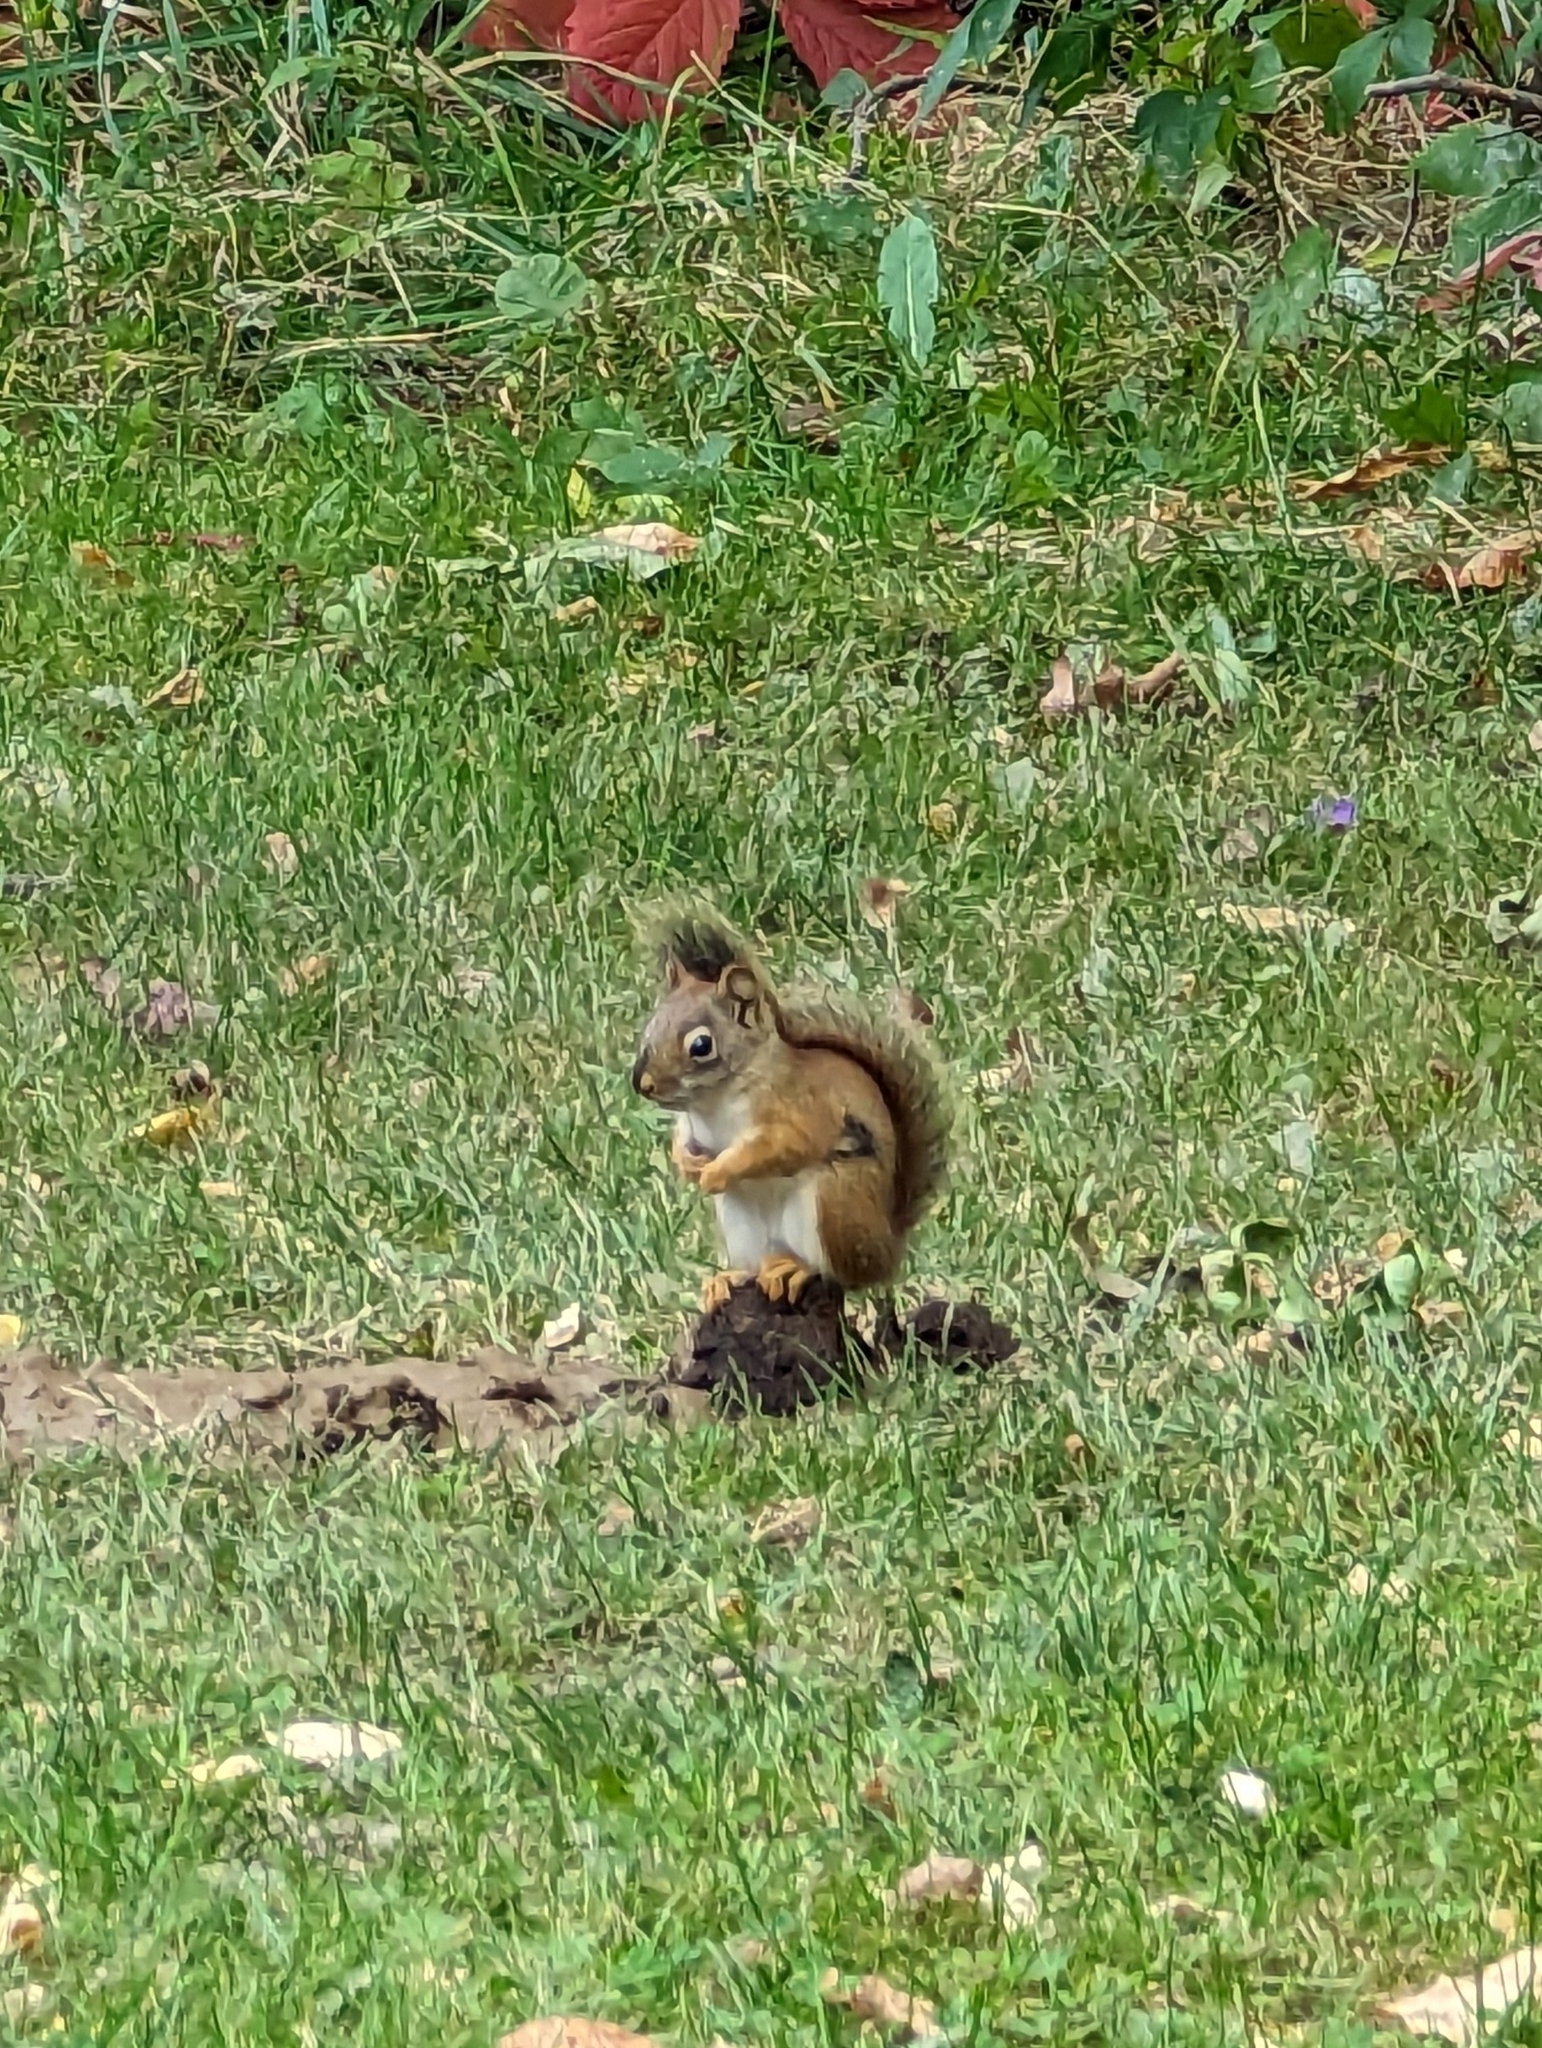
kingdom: Animalia
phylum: Chordata
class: Mammalia
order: Rodentia
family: Sciuridae
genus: Tamiasciurus
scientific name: Tamiasciurus hudsonicus
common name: Red squirrel
